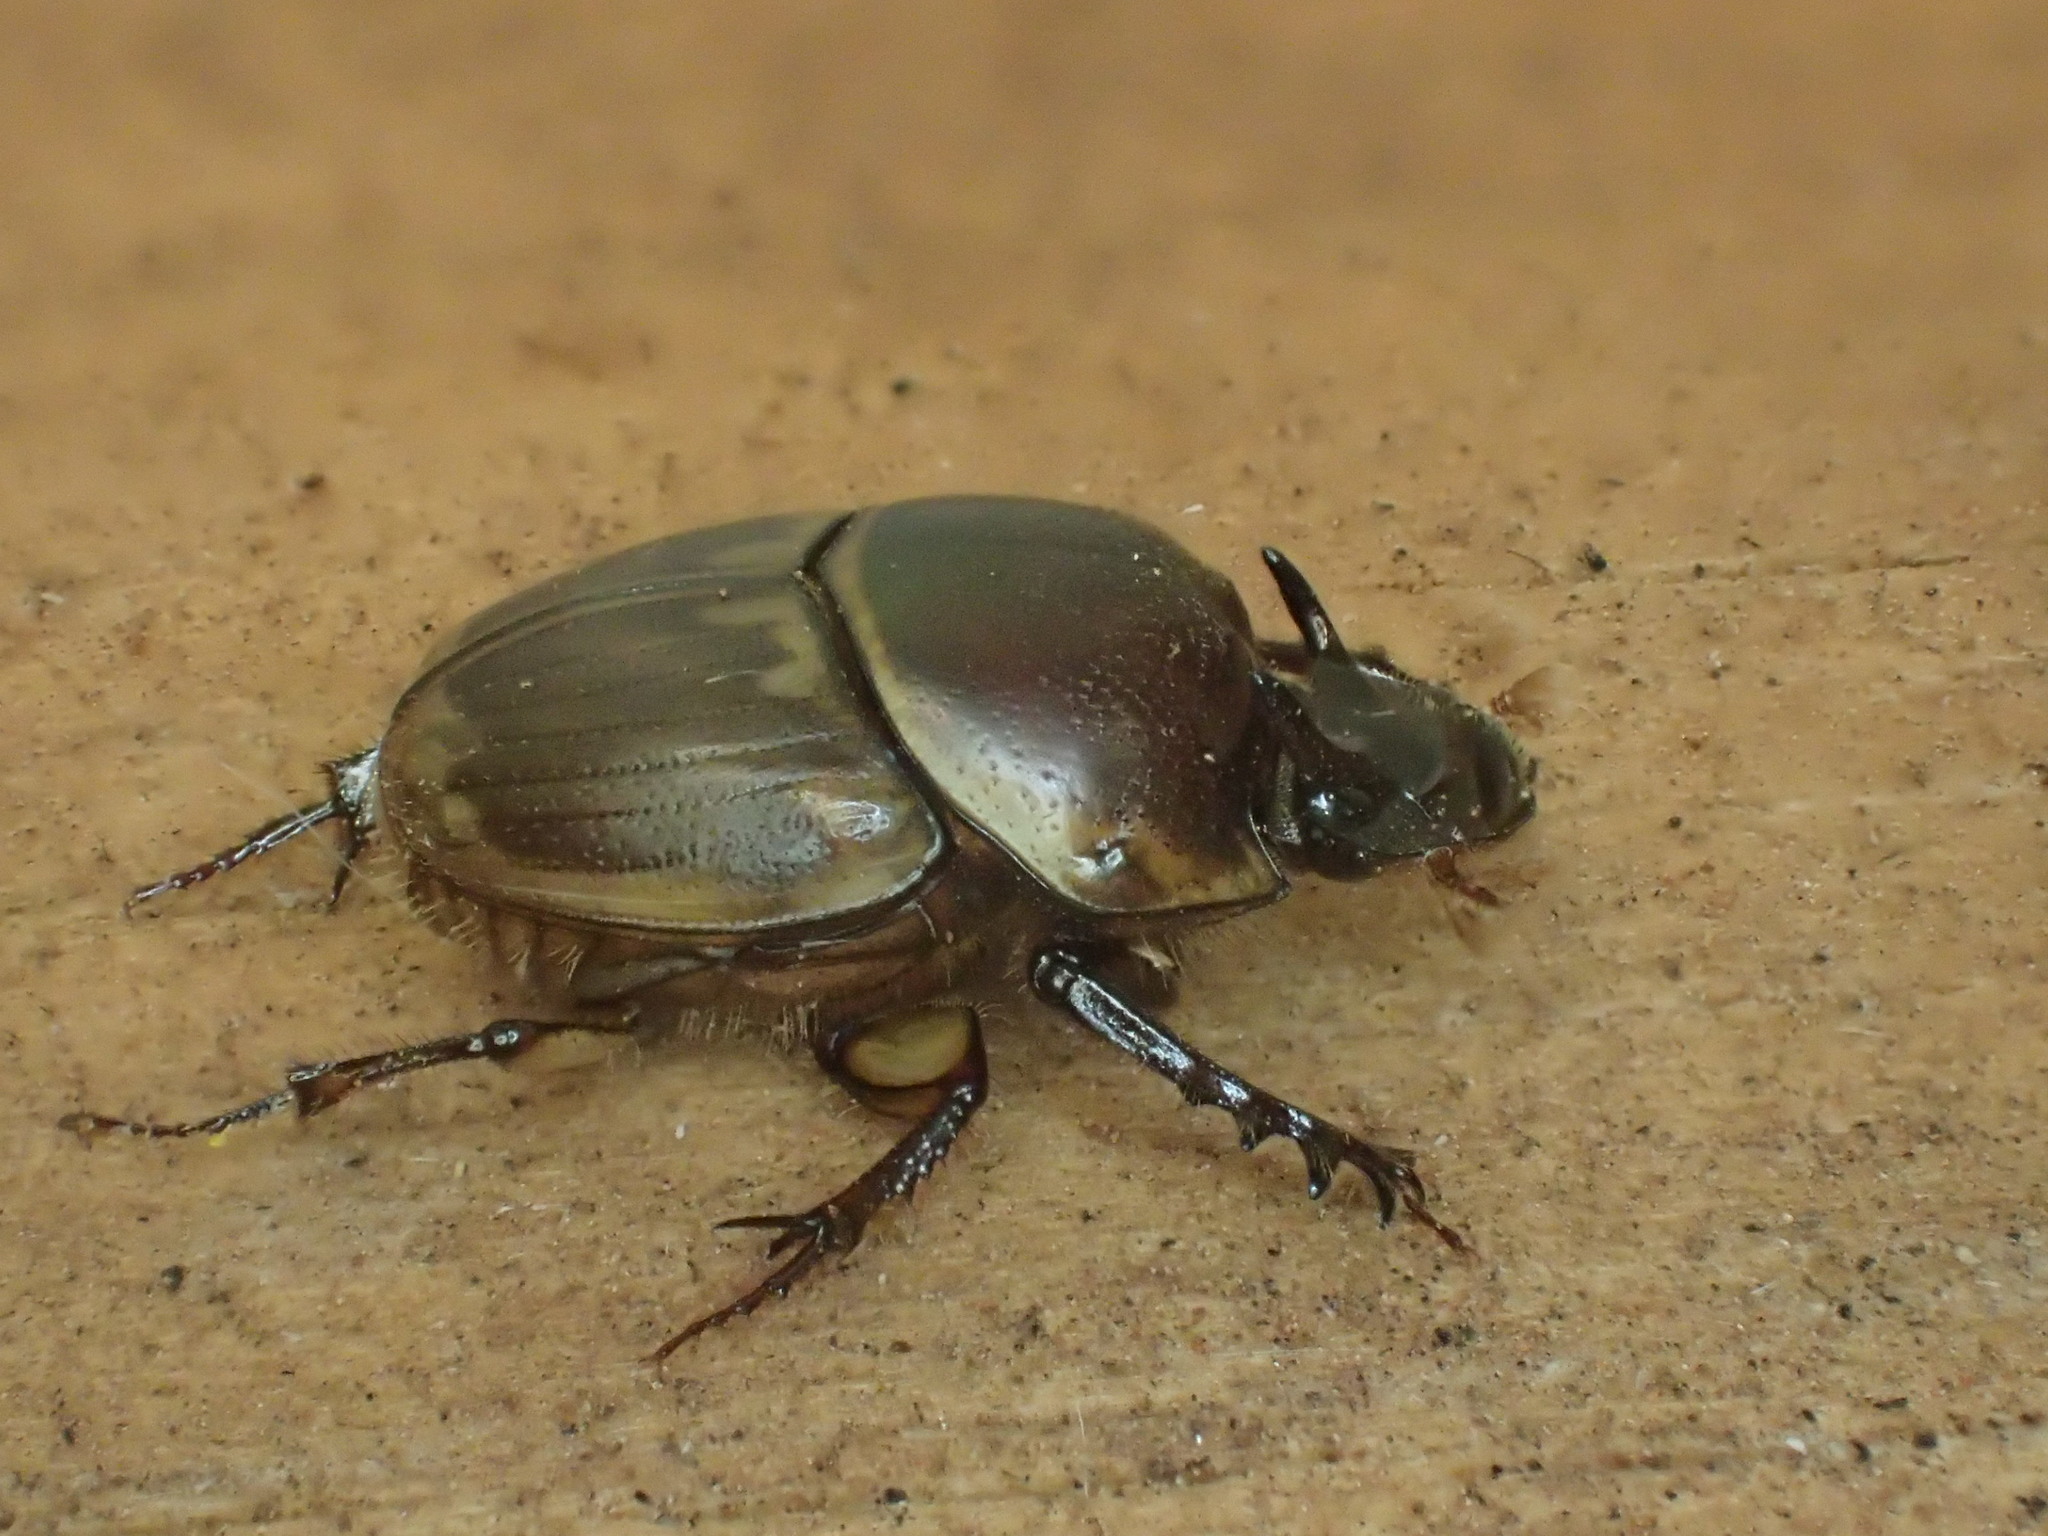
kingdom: Animalia
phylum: Arthropoda
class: Insecta
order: Coleoptera
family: Scarabaeidae
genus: Digitonthophagus
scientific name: Digitonthophagus gazella
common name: Brown dung beetle
